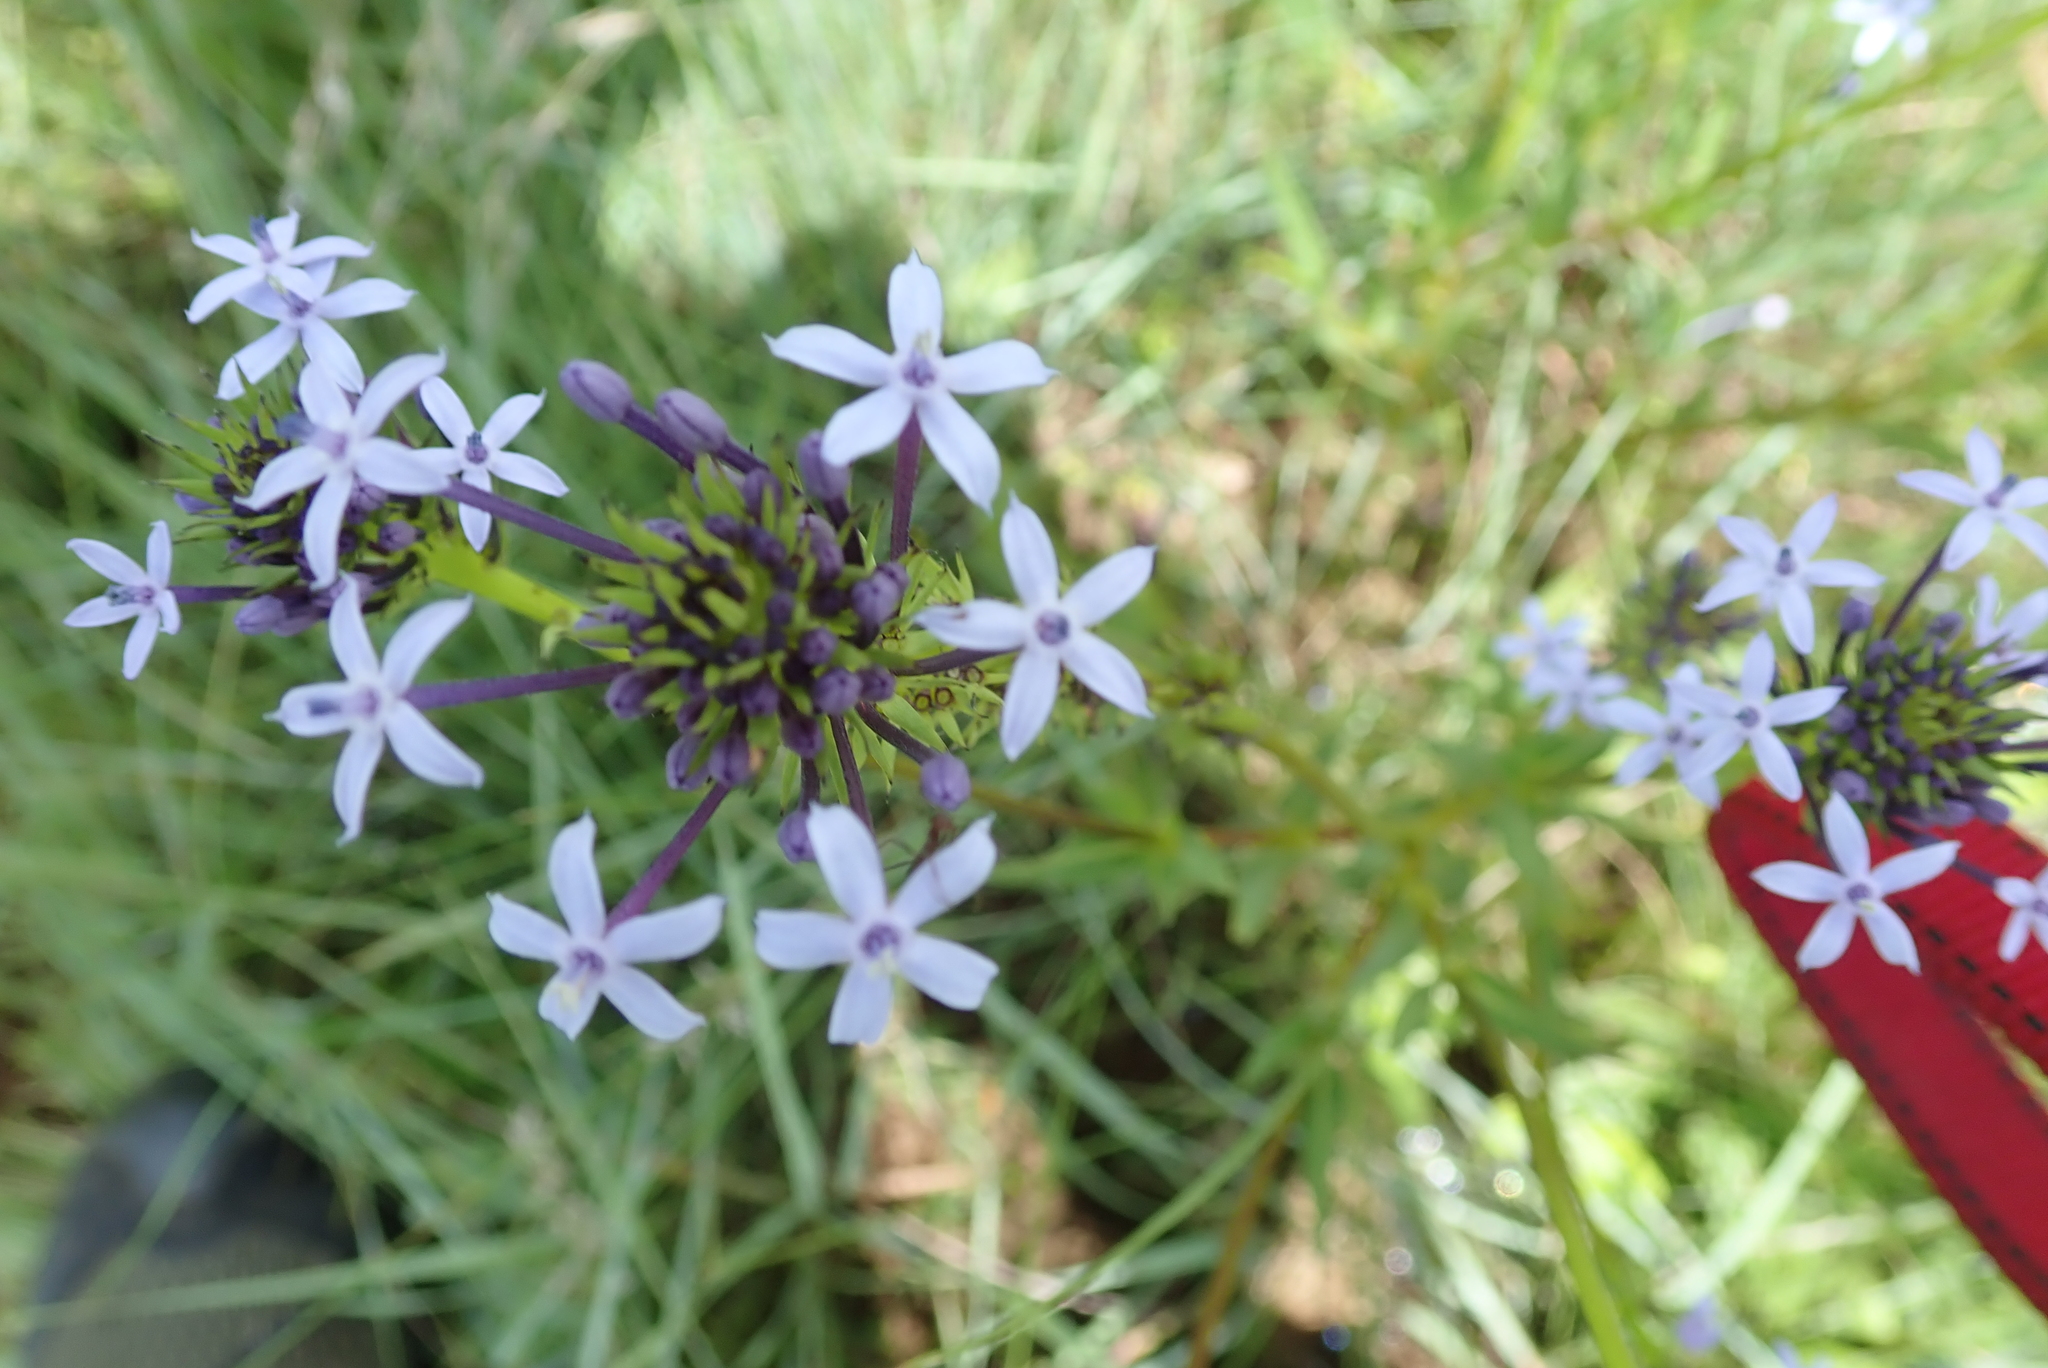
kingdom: Plantae
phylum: Tracheophyta
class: Magnoliopsida
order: Gentianales
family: Rubiaceae
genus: Pentanisia
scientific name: Pentanisia angustifolia
